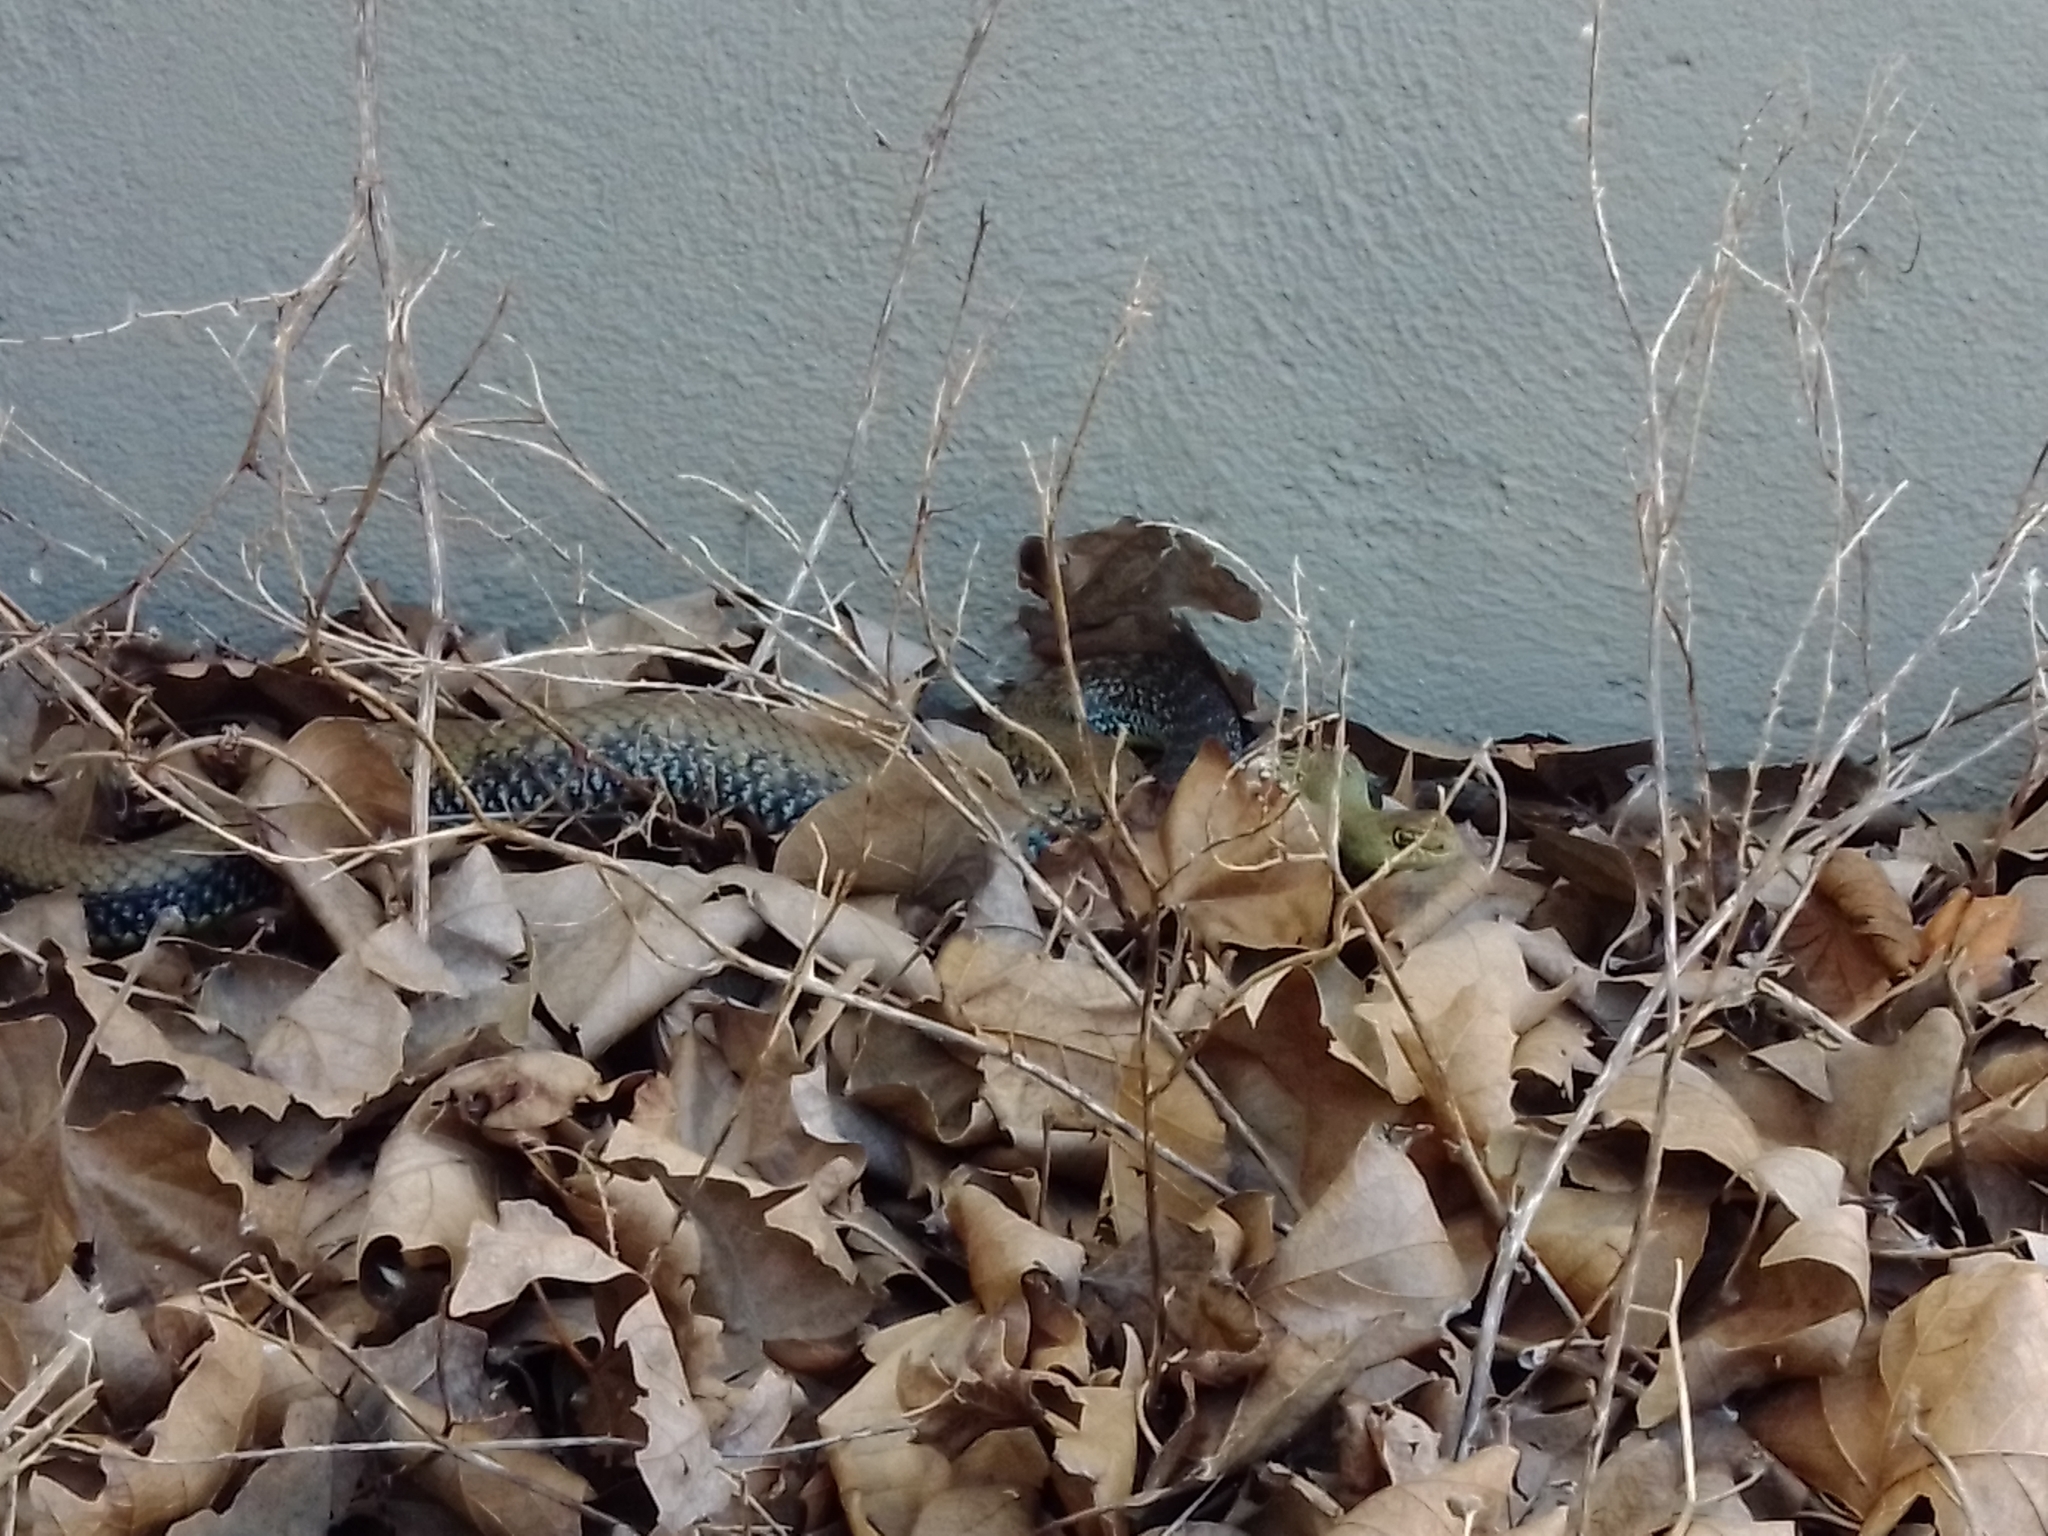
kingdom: Animalia
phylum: Chordata
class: Squamata
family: Psammophiidae
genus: Malpolon
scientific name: Malpolon monspessulanus
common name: Montpellier snake
